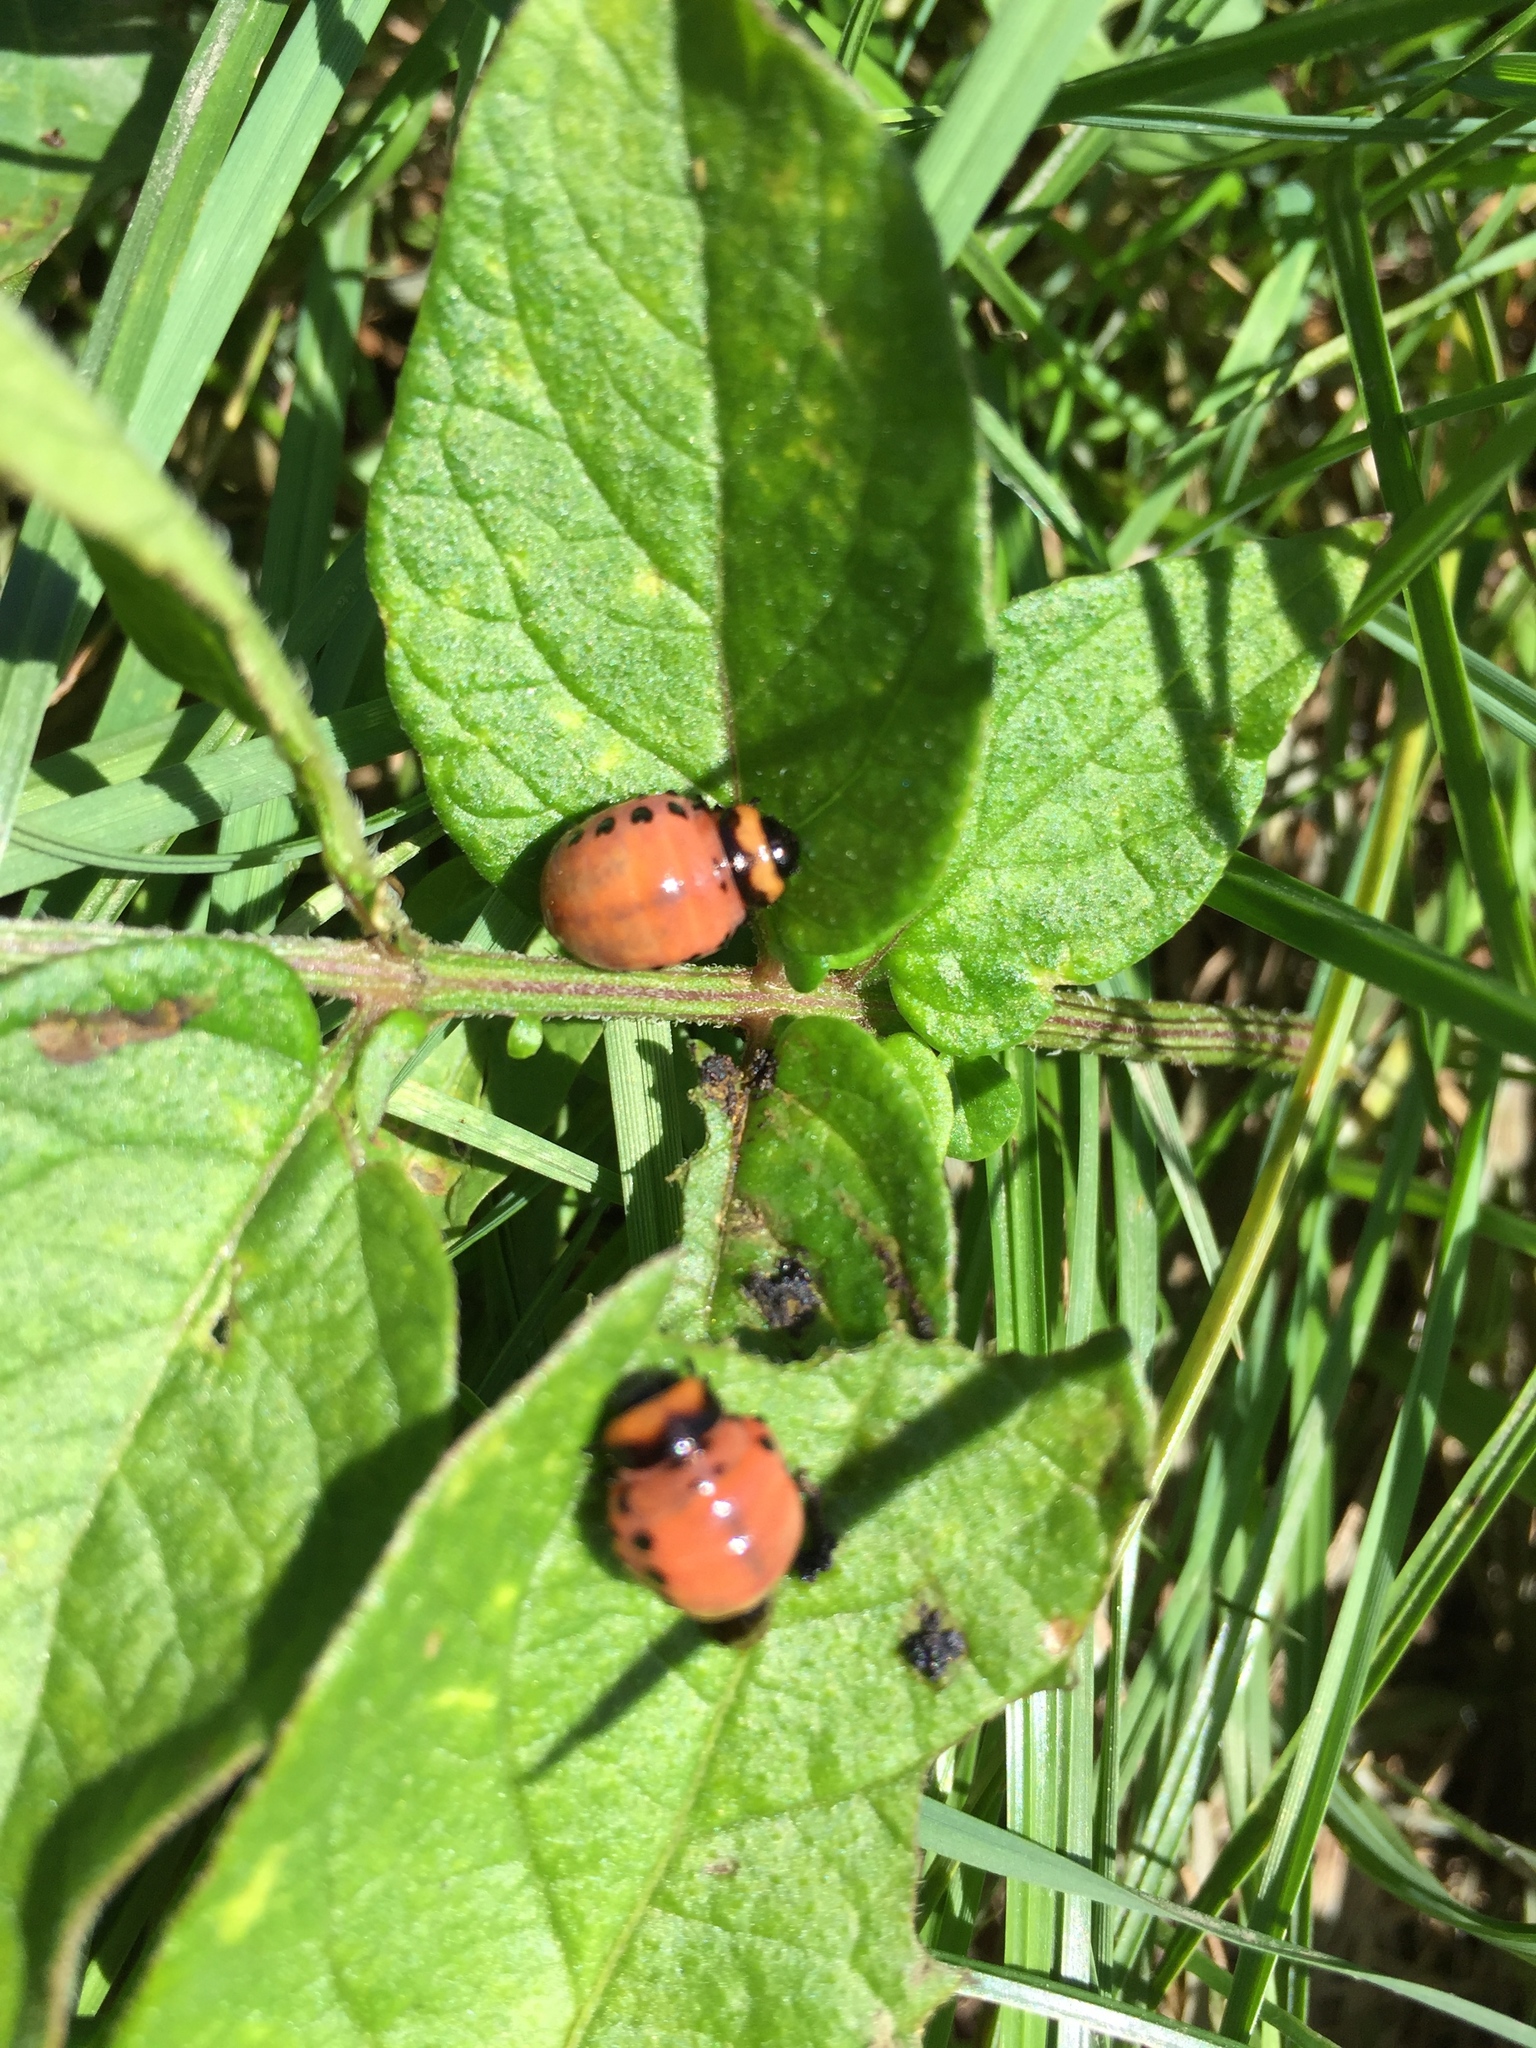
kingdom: Animalia
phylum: Arthropoda
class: Insecta
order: Coleoptera
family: Chrysomelidae
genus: Leptinotarsa
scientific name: Leptinotarsa decemlineata
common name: Colorado potato beetle
